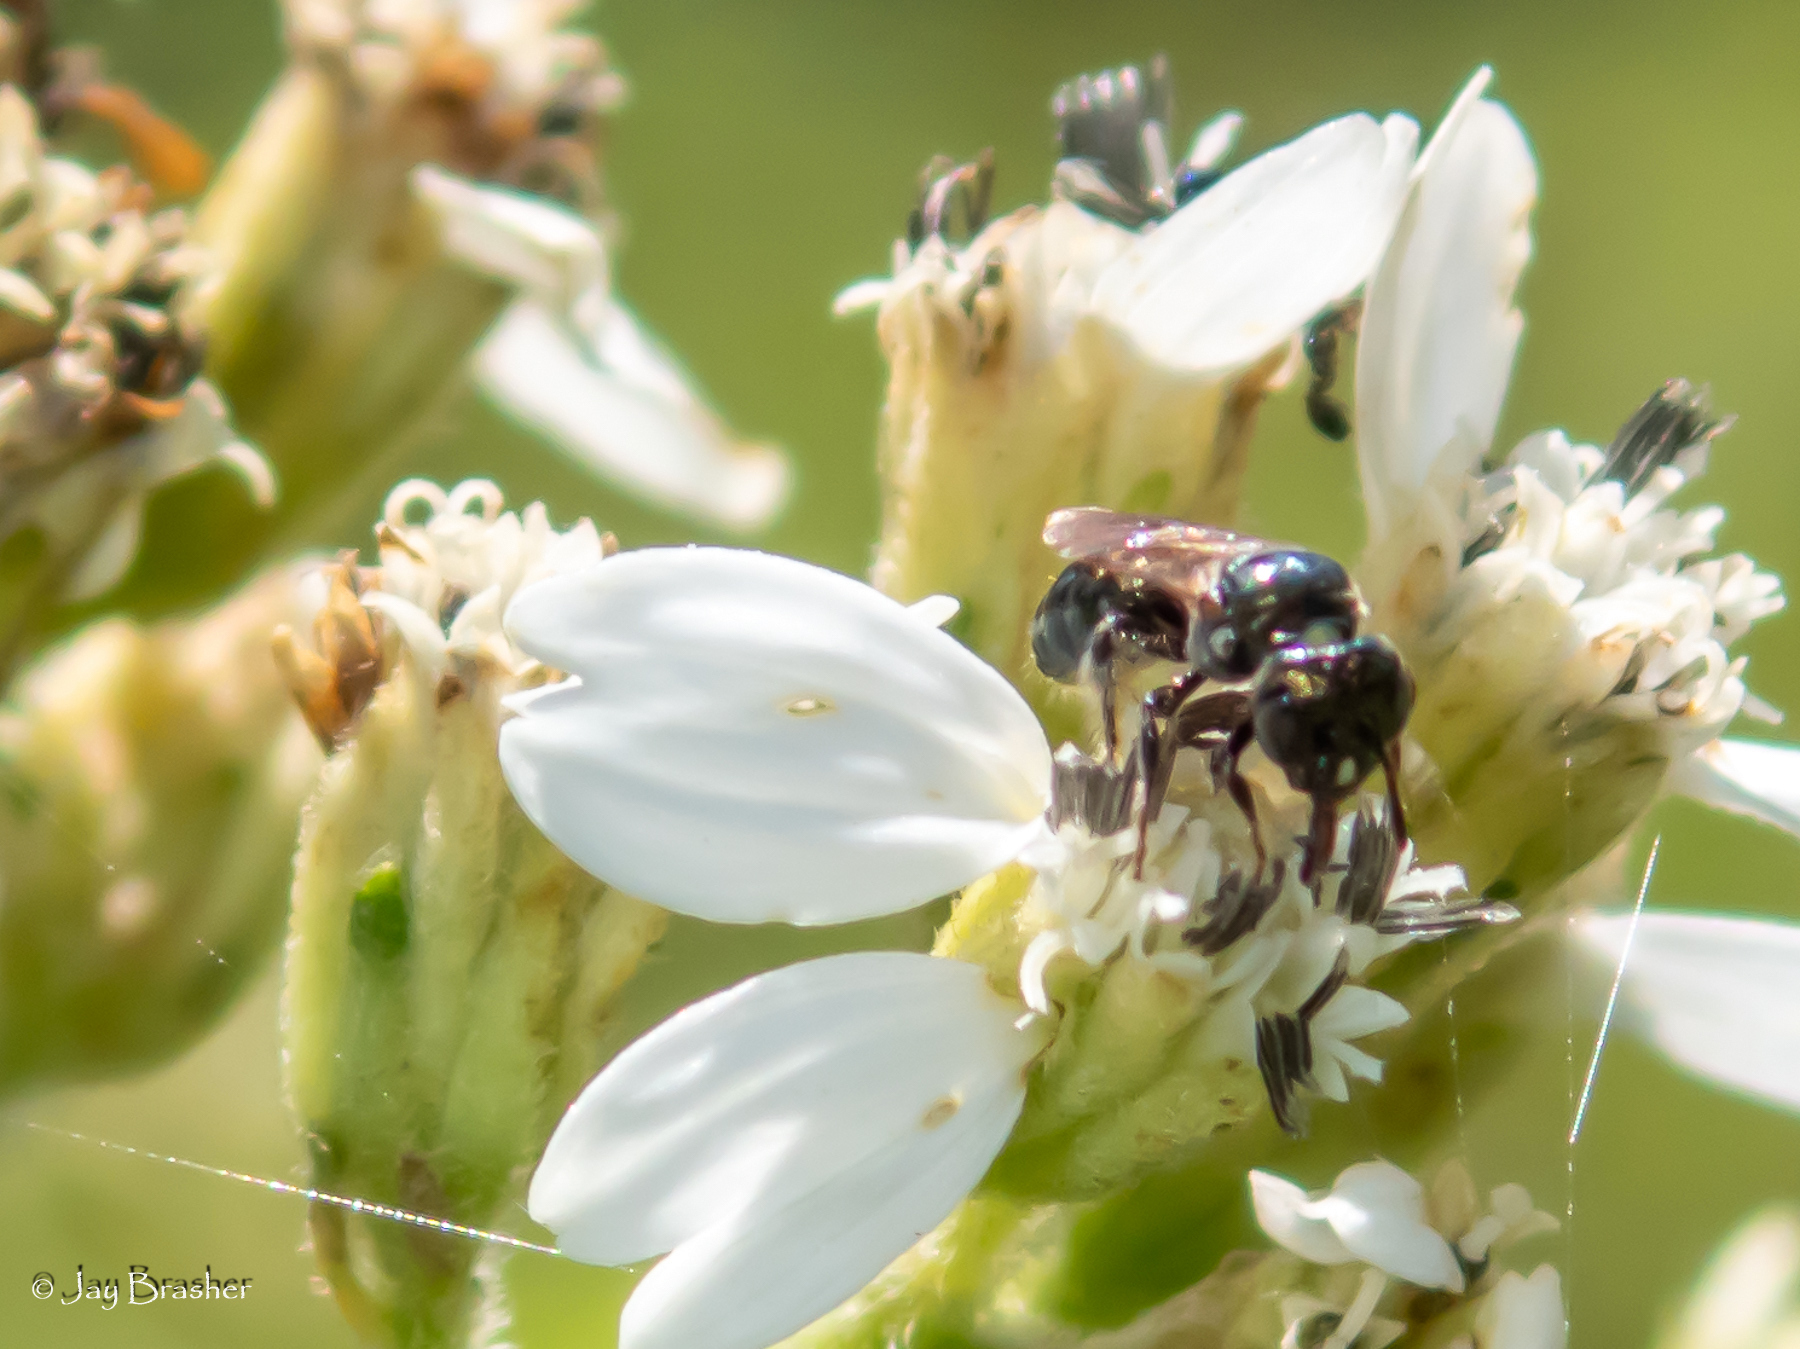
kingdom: Animalia
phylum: Arthropoda
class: Insecta
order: Hymenoptera
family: Apidae
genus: Zadontomerus
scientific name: Zadontomerus
